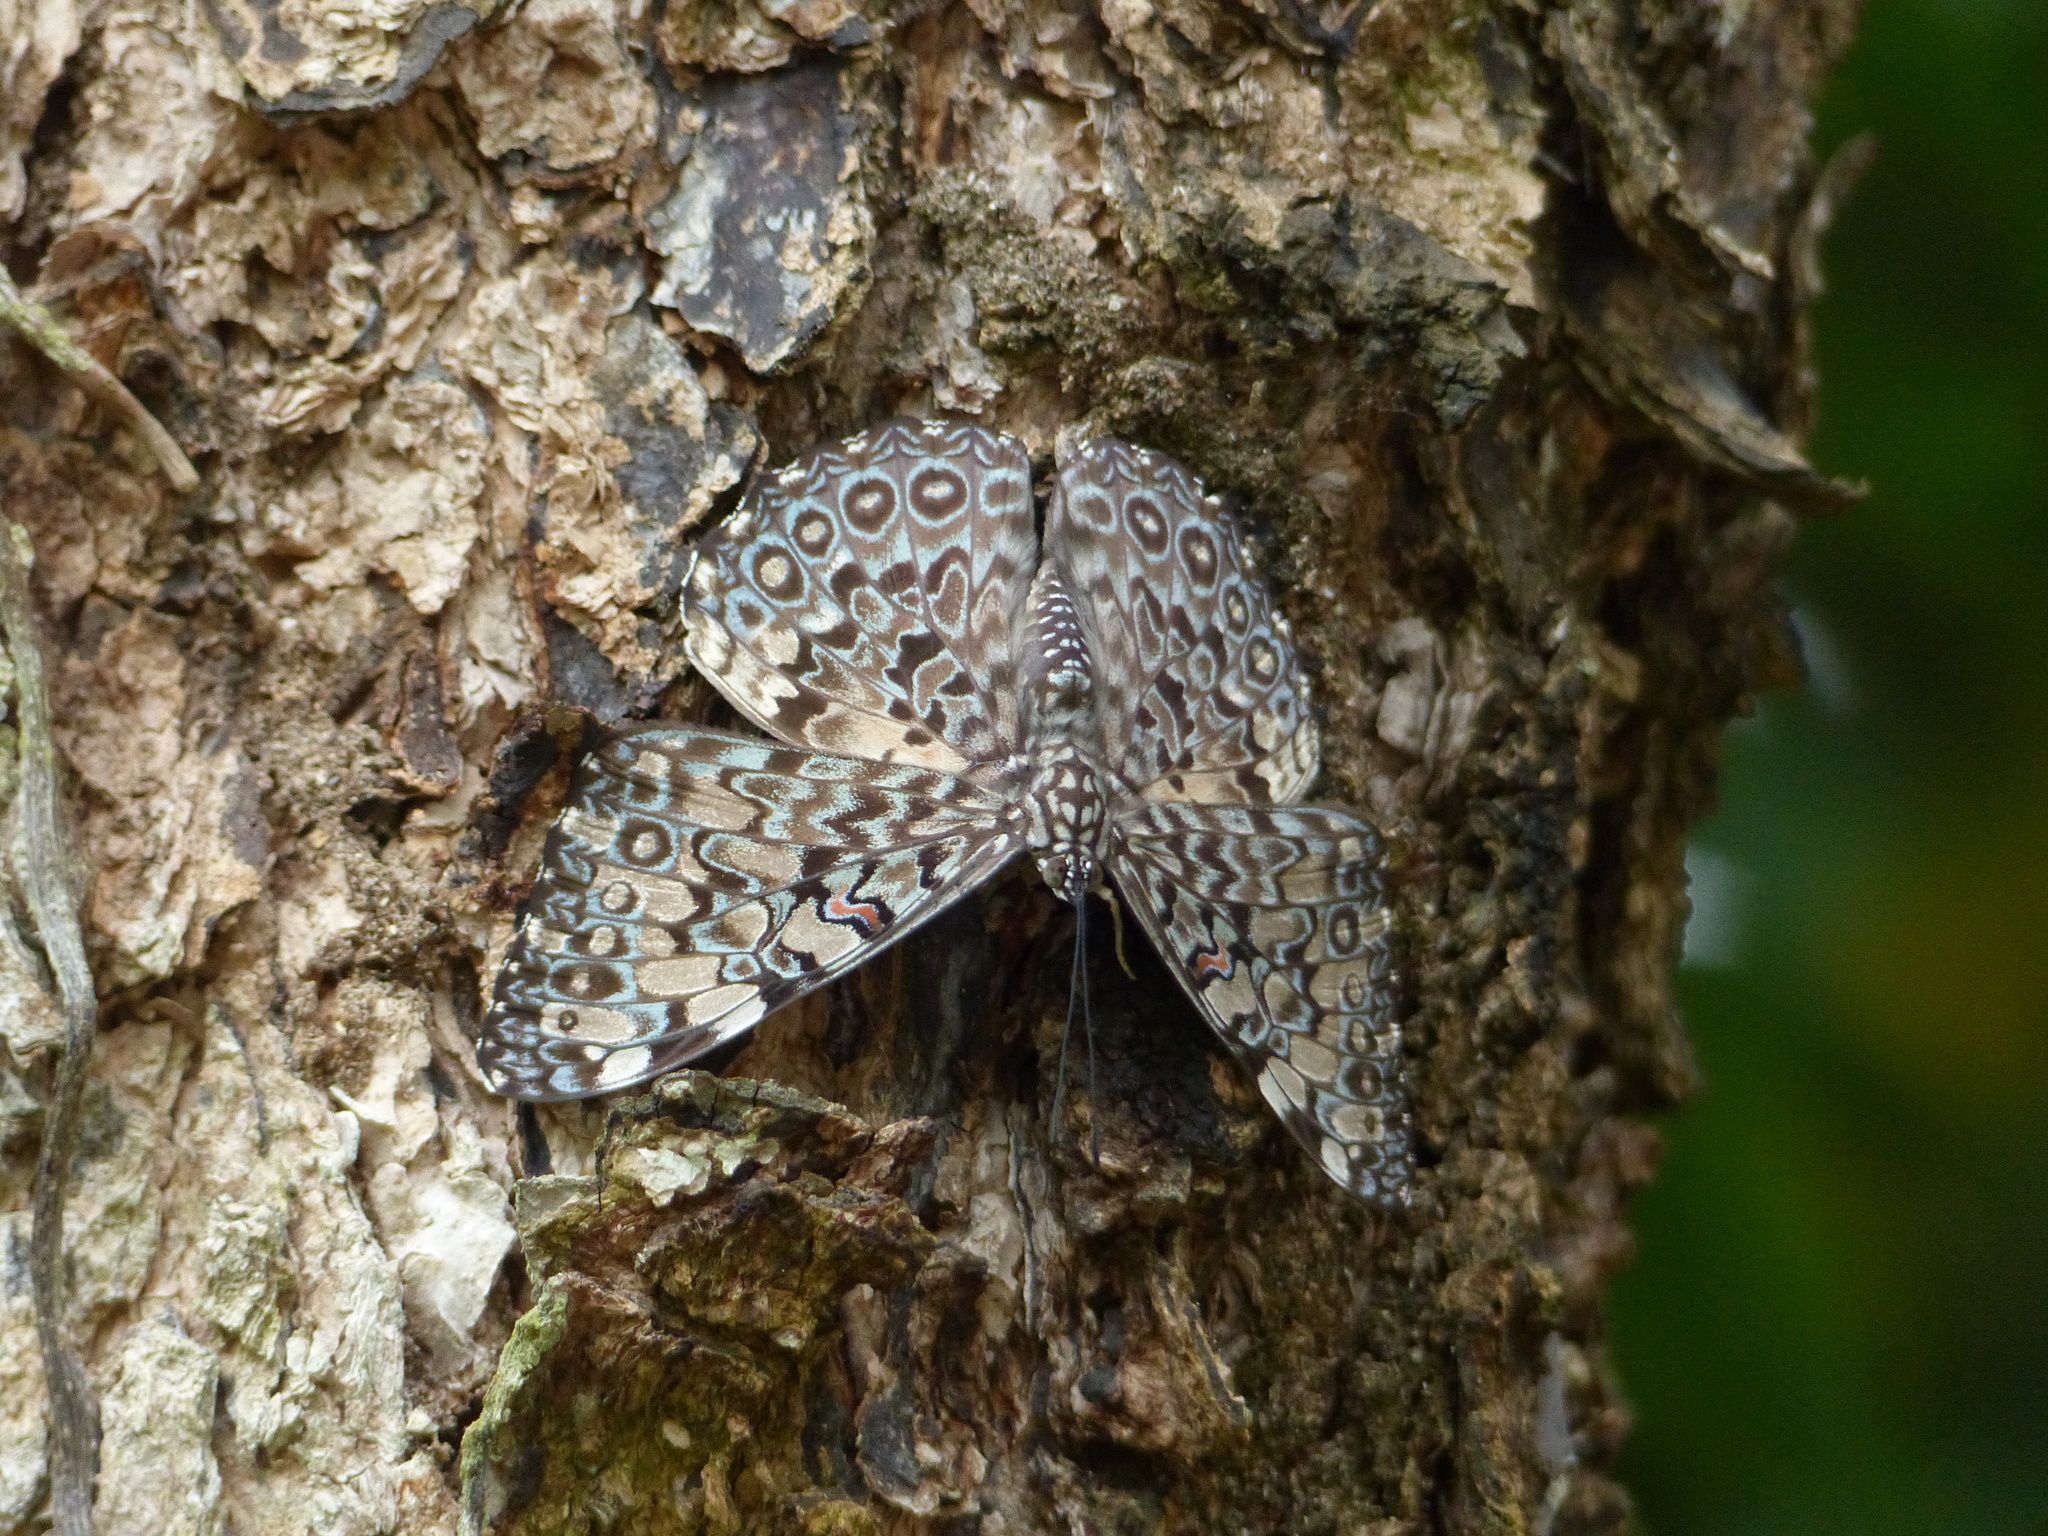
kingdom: Animalia
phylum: Arthropoda
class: Insecta
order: Lepidoptera
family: Nymphalidae
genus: Hamadryas
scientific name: Hamadryas feronia
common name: Variable cracker
